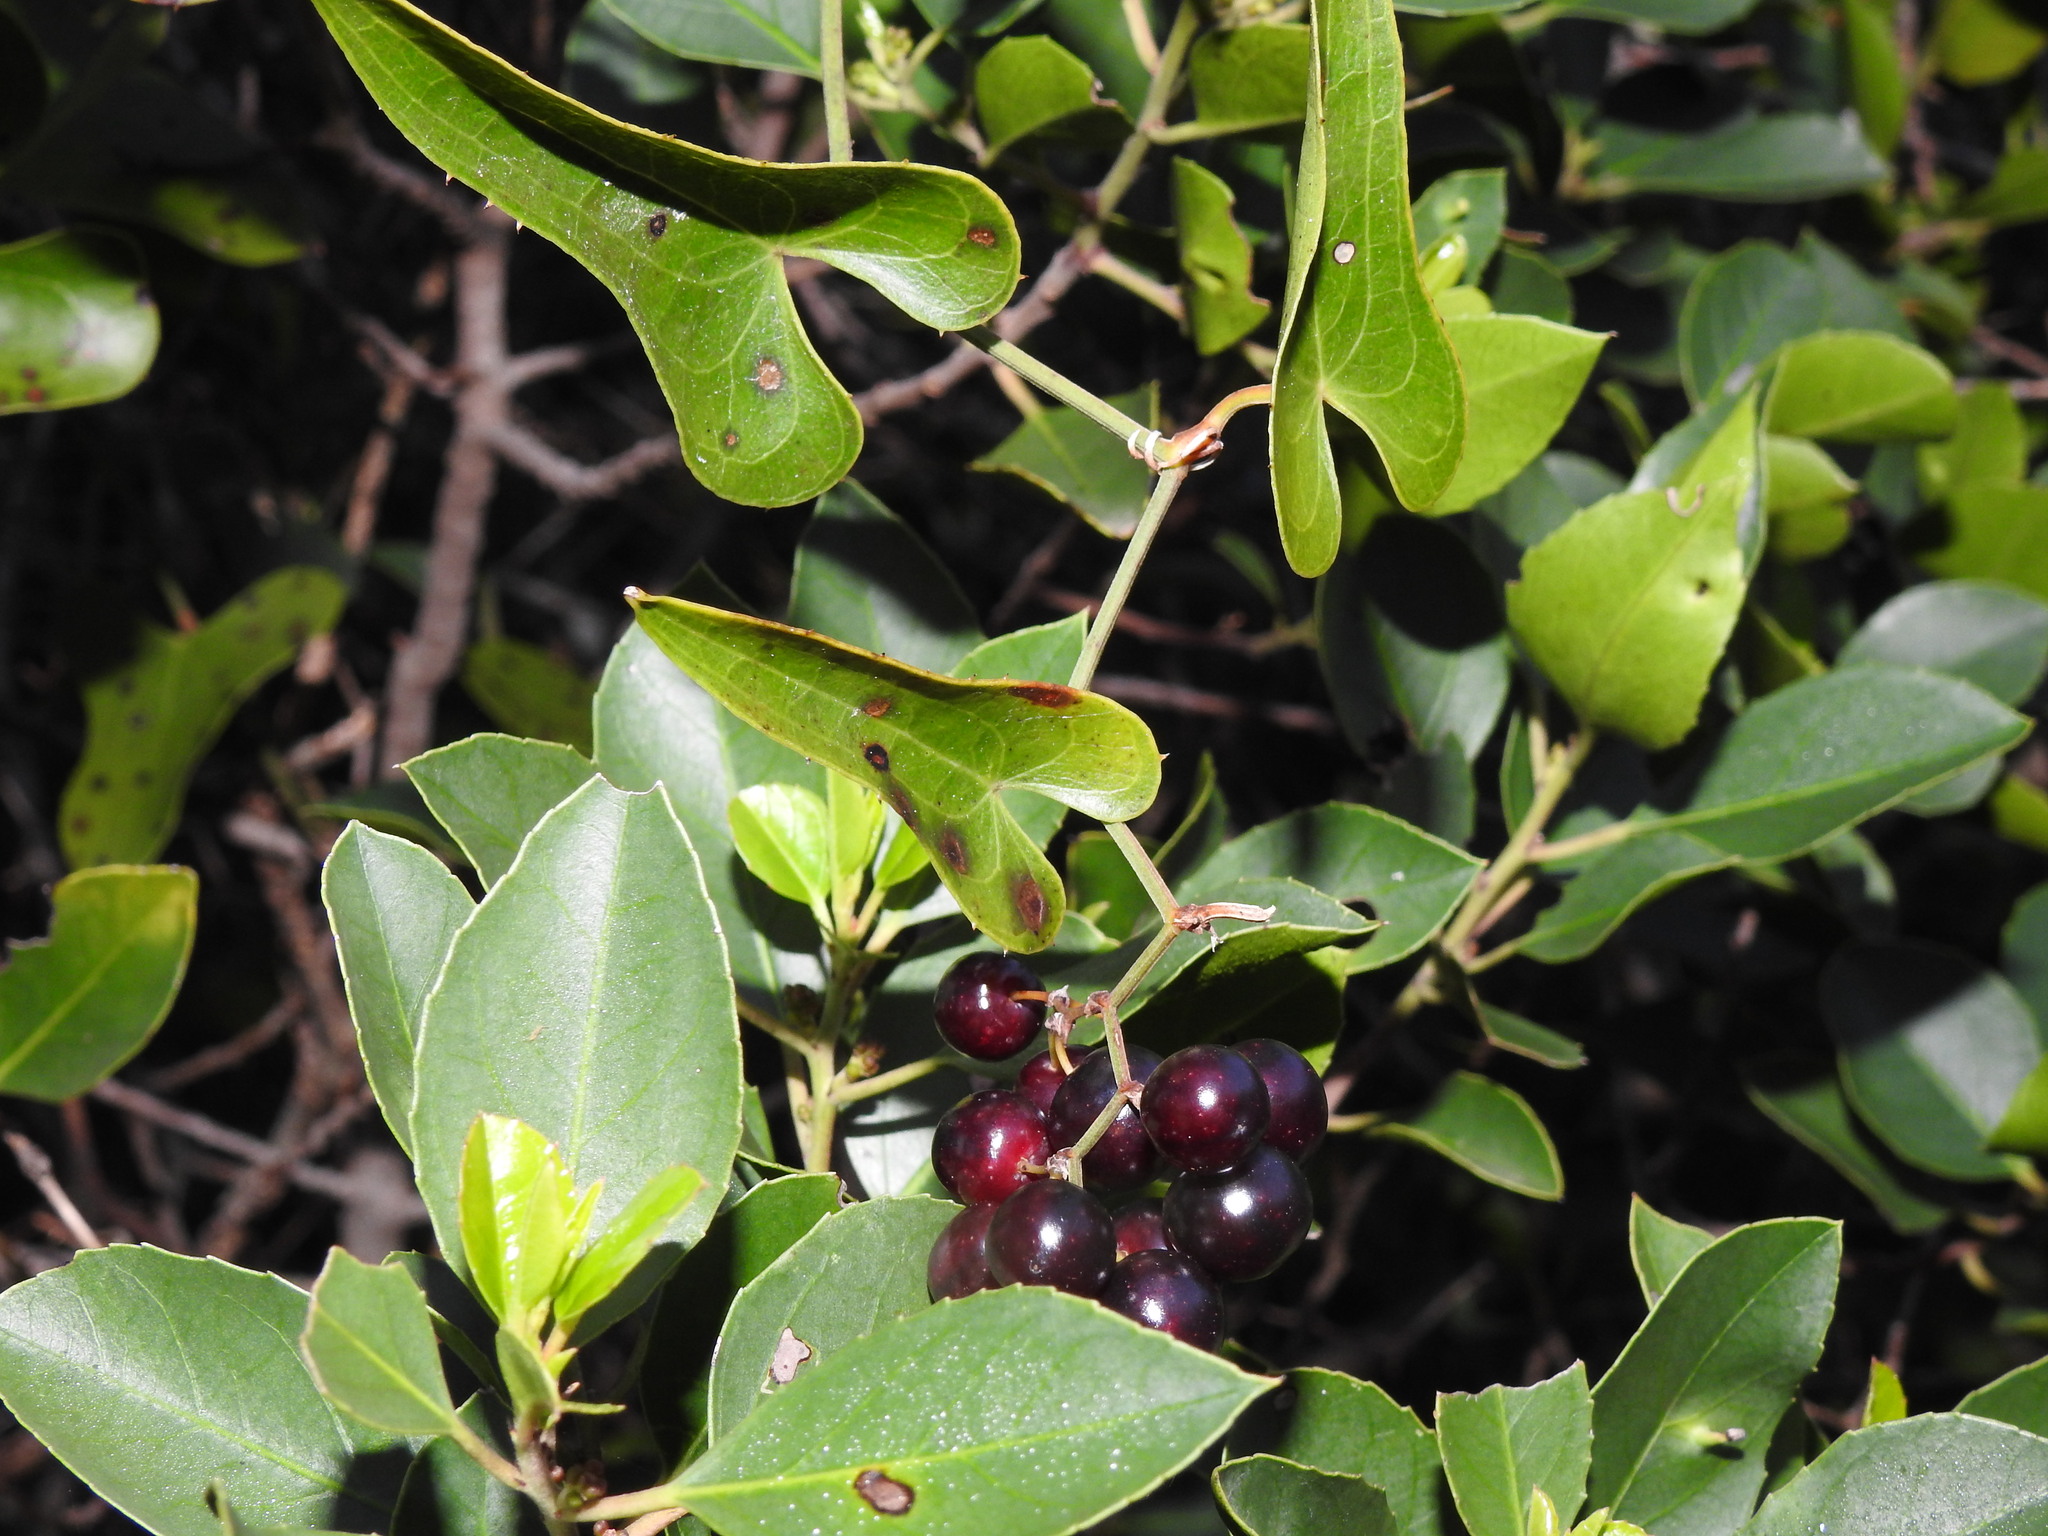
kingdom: Plantae
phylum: Tracheophyta
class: Liliopsida
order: Liliales
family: Smilacaceae
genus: Smilax
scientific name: Smilax aspera
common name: Common smilax
